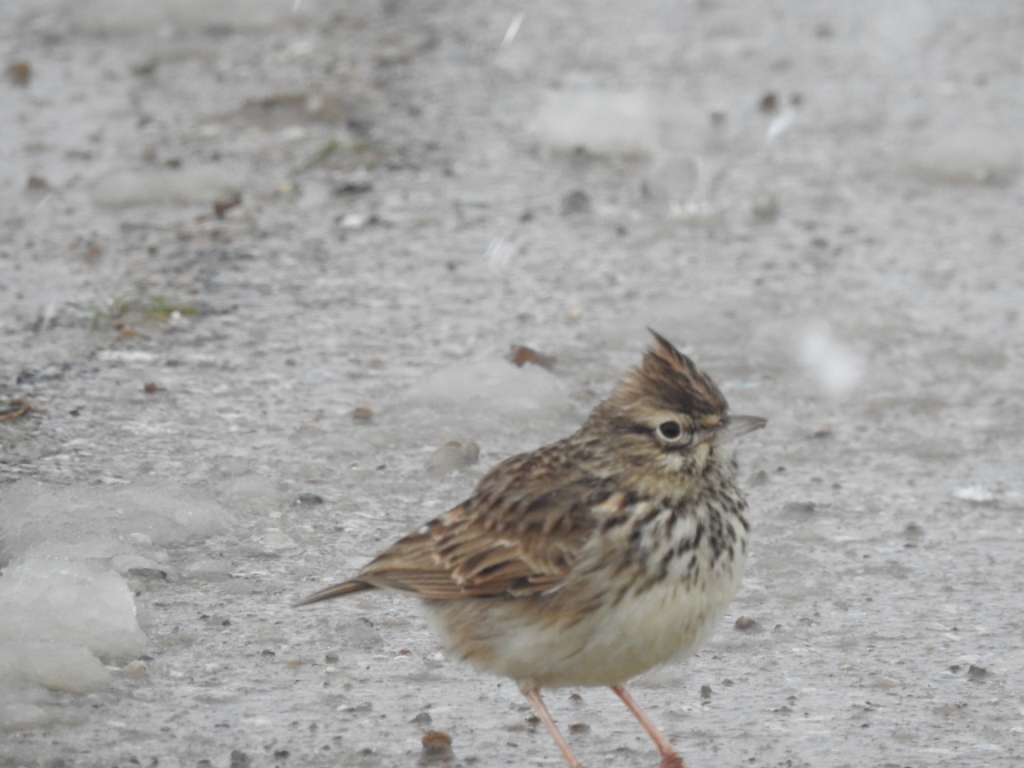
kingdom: Animalia
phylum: Chordata
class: Aves
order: Passeriformes
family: Alaudidae
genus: Galerida
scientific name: Galerida theklae
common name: Thekla lark
